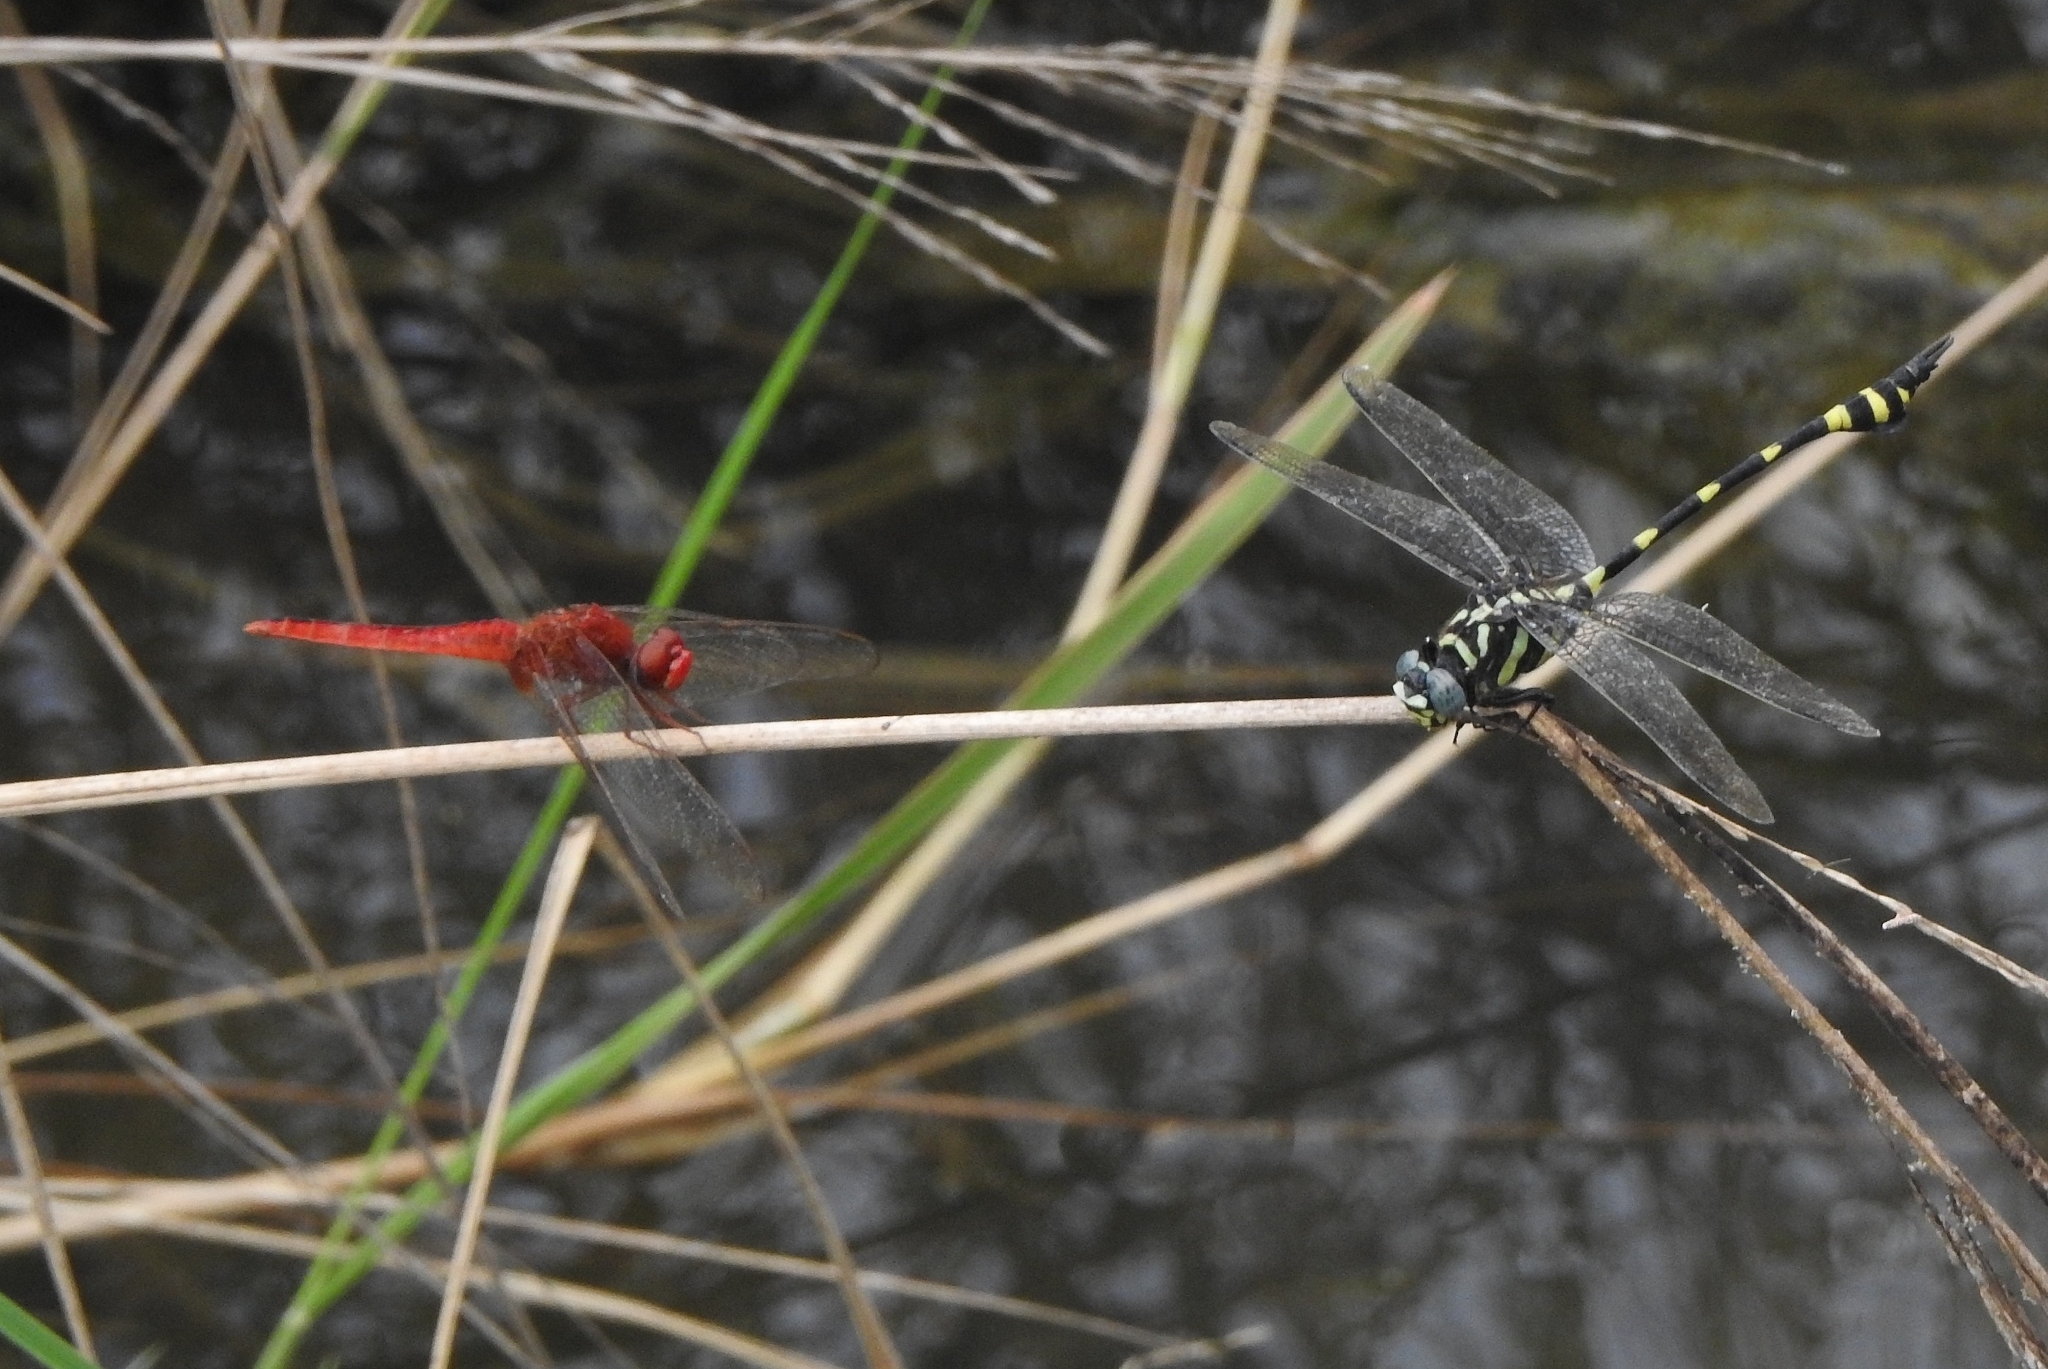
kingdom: Animalia
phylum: Arthropoda
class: Insecta
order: Odonata
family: Libellulidae
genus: Crocothemis
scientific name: Crocothemis servilia
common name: Scarlet skimmer
